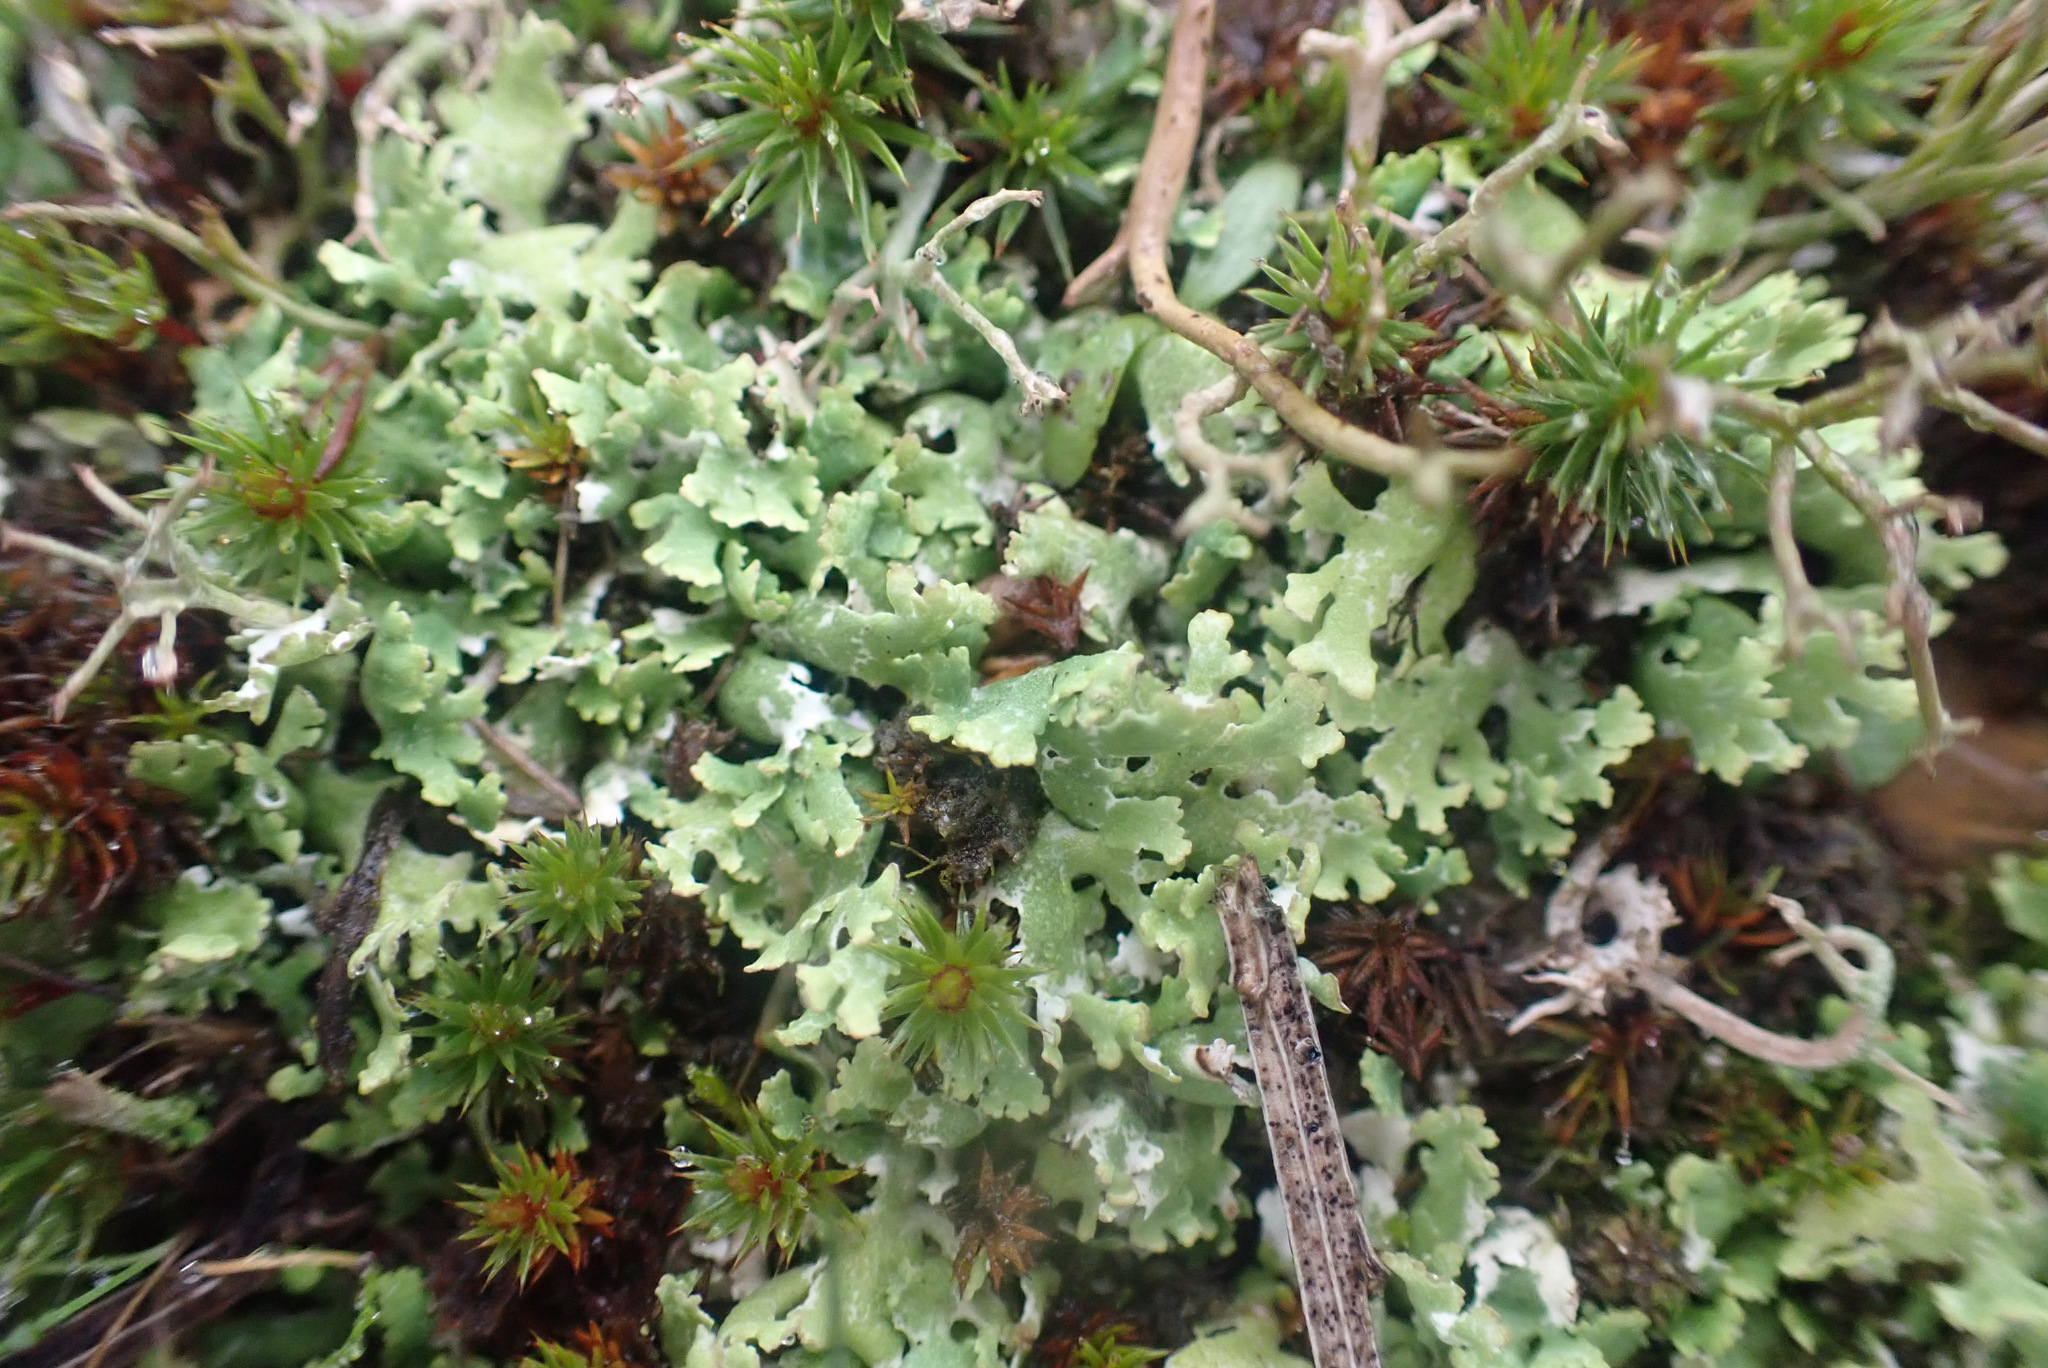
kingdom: Fungi
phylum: Ascomycota
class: Lecanoromycetes
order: Lecanorales
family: Cladoniaceae
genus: Cladonia
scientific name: Cladonia foliacea
